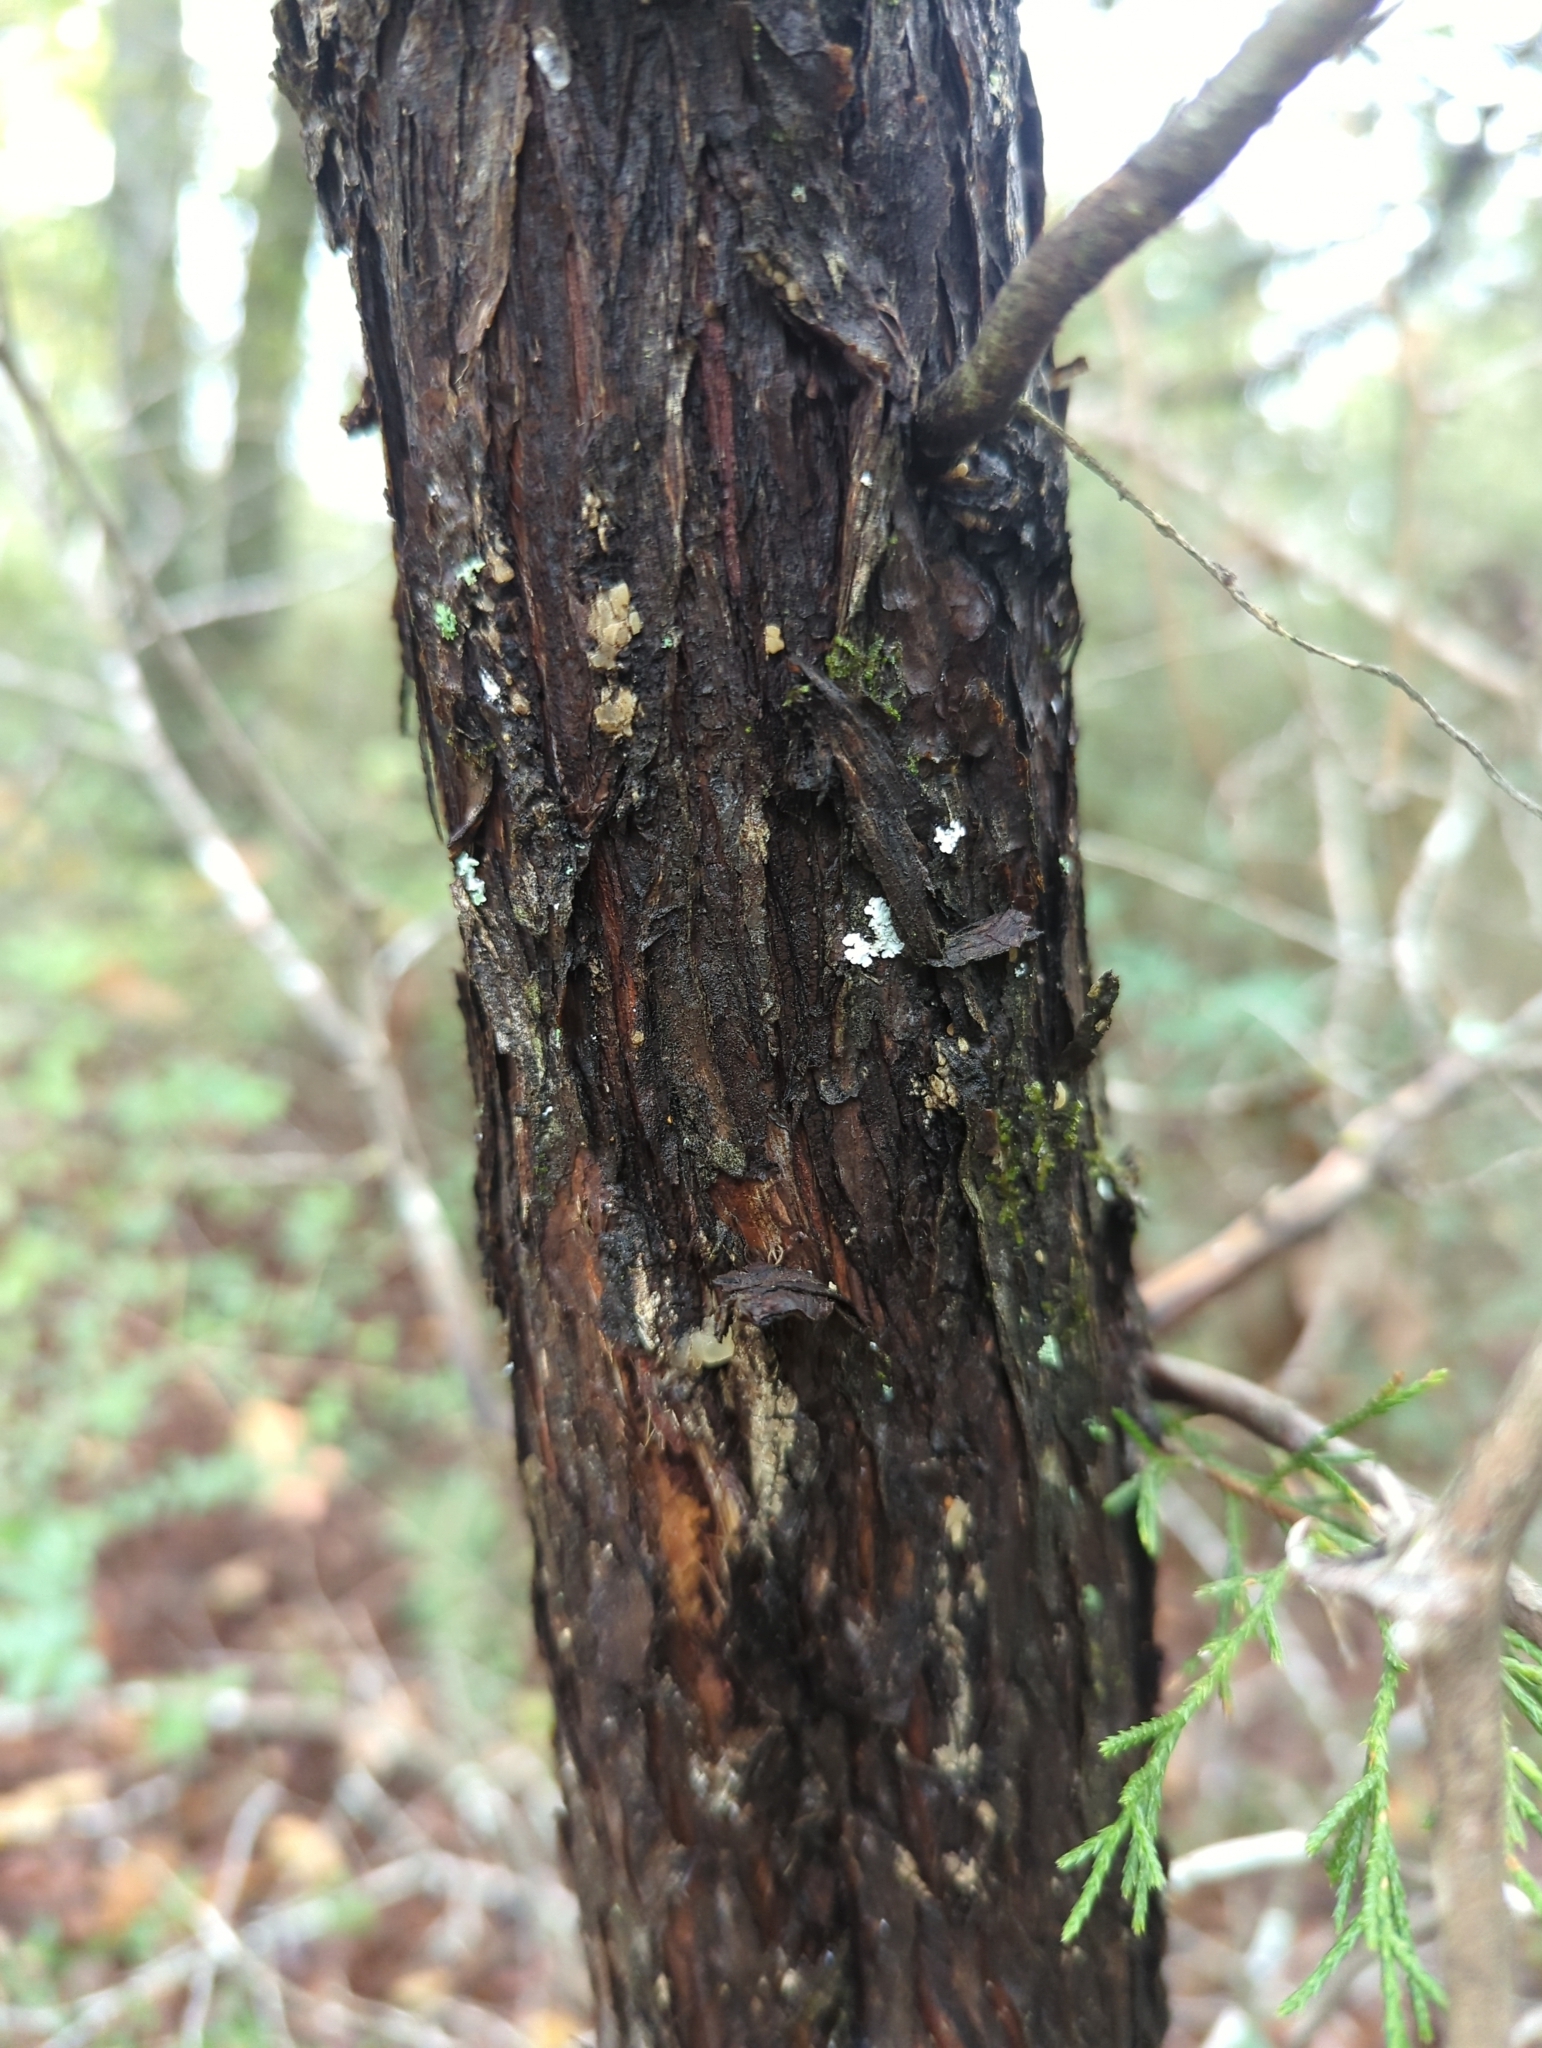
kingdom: Plantae
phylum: Tracheophyta
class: Pinopsida
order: Pinales
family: Cupressaceae
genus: Juniperus
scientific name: Juniperus virginiana
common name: Red juniper
